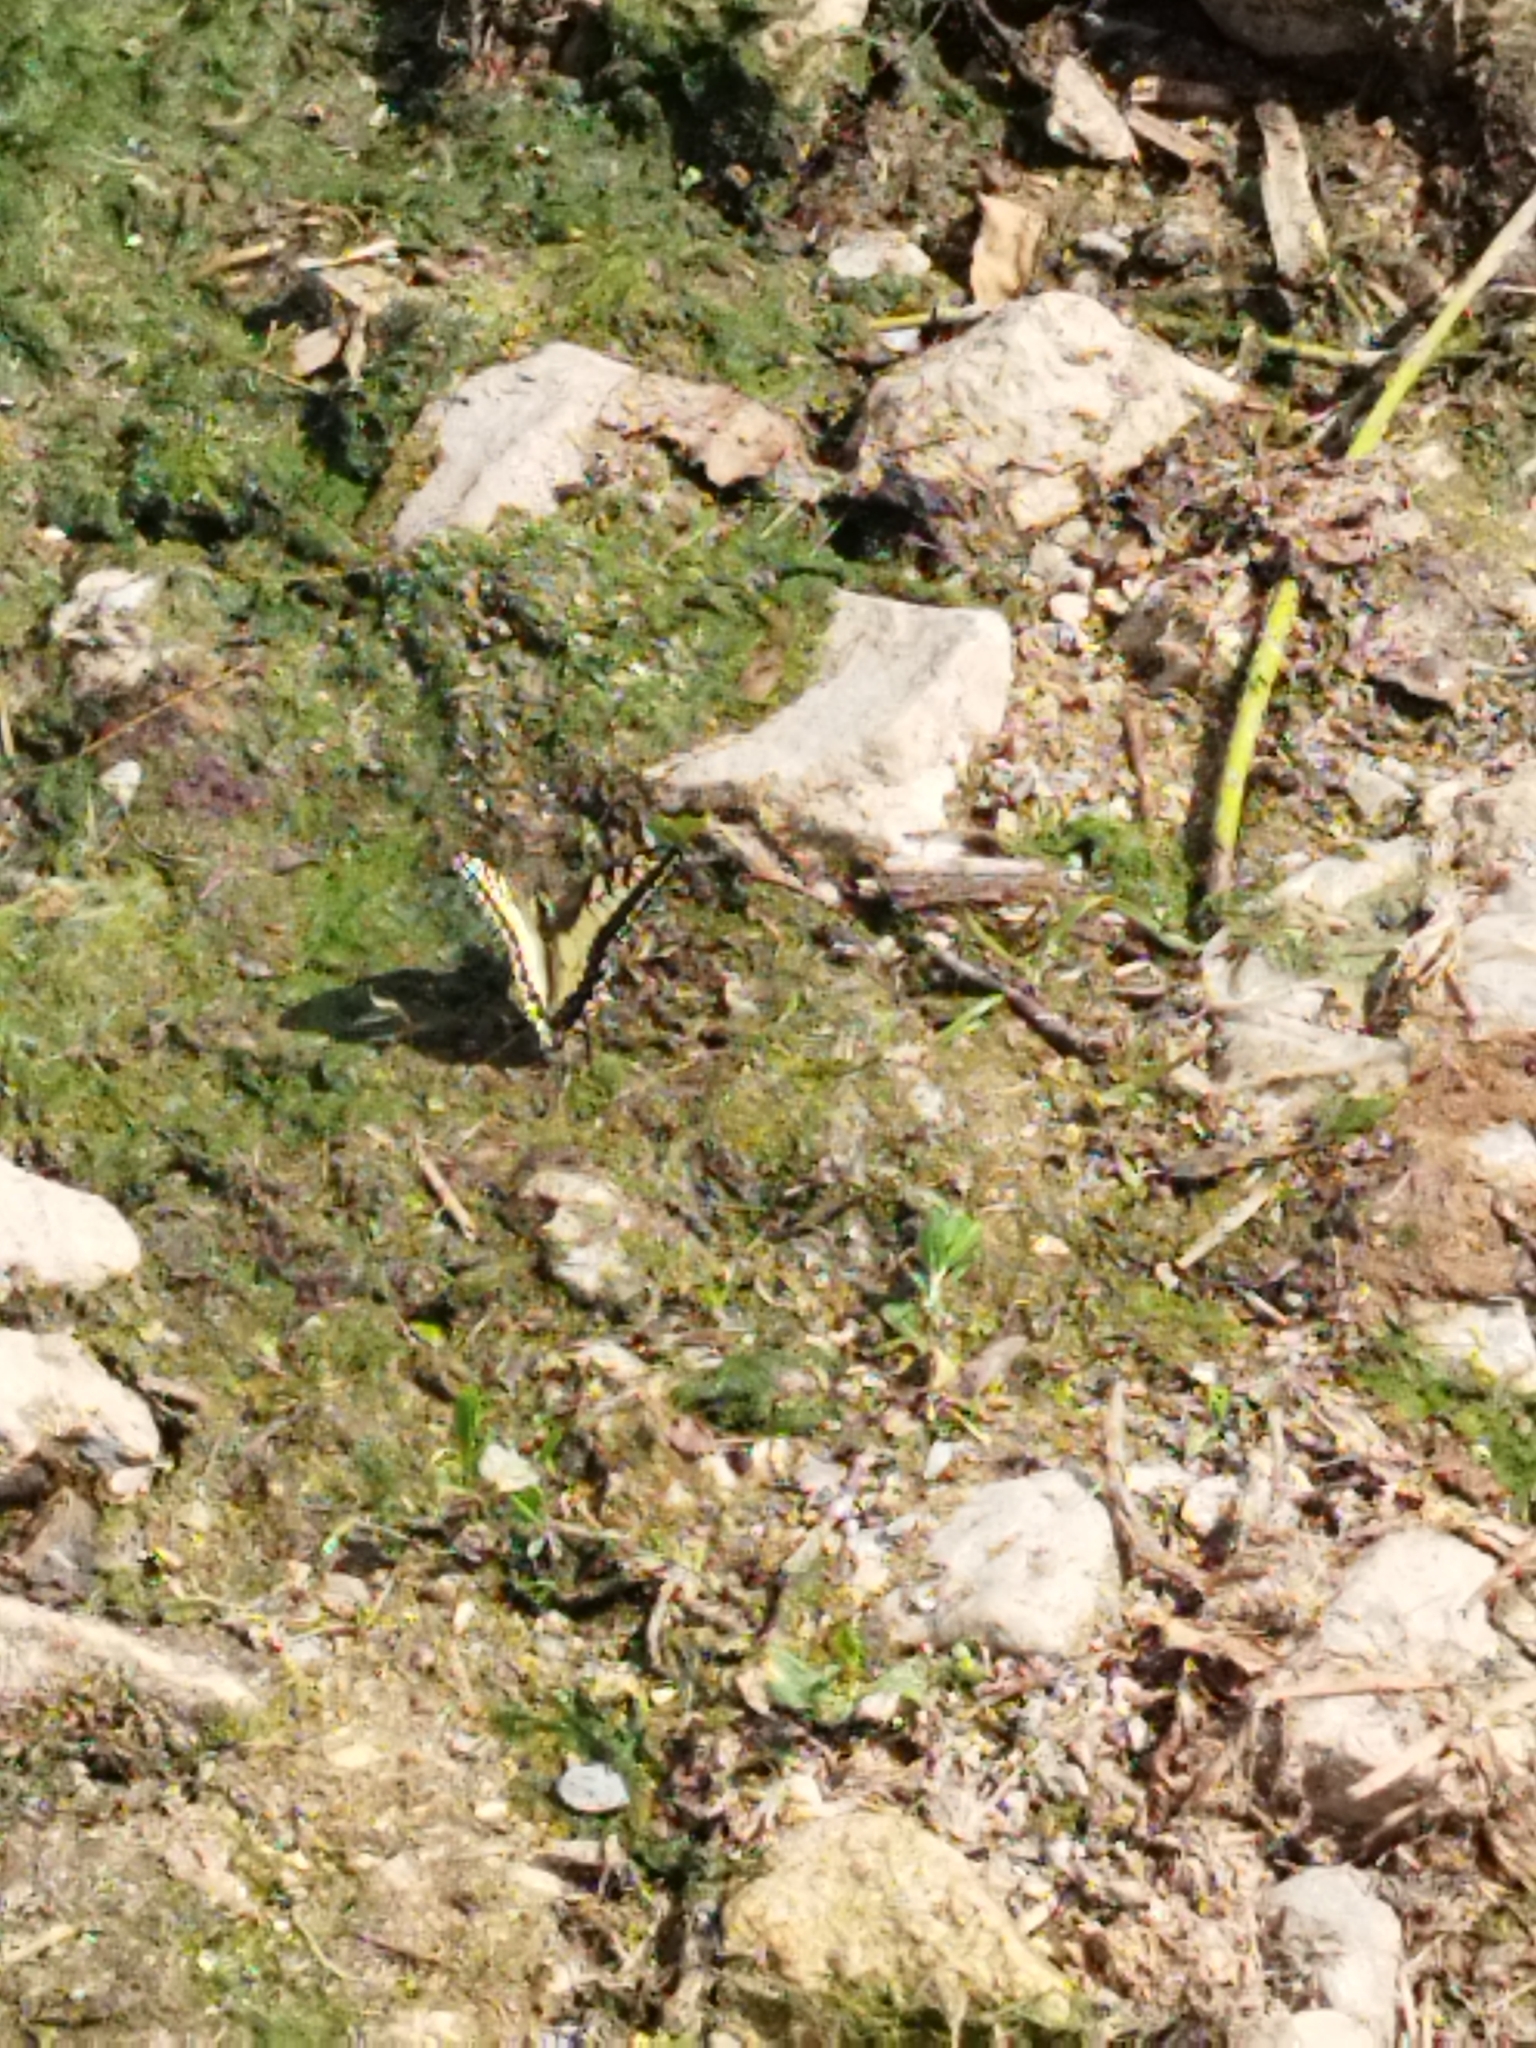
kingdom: Animalia
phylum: Arthropoda
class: Insecta
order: Lepidoptera
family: Papilionidae
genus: Papilio
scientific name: Papilio machaon
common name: Swallowtail
